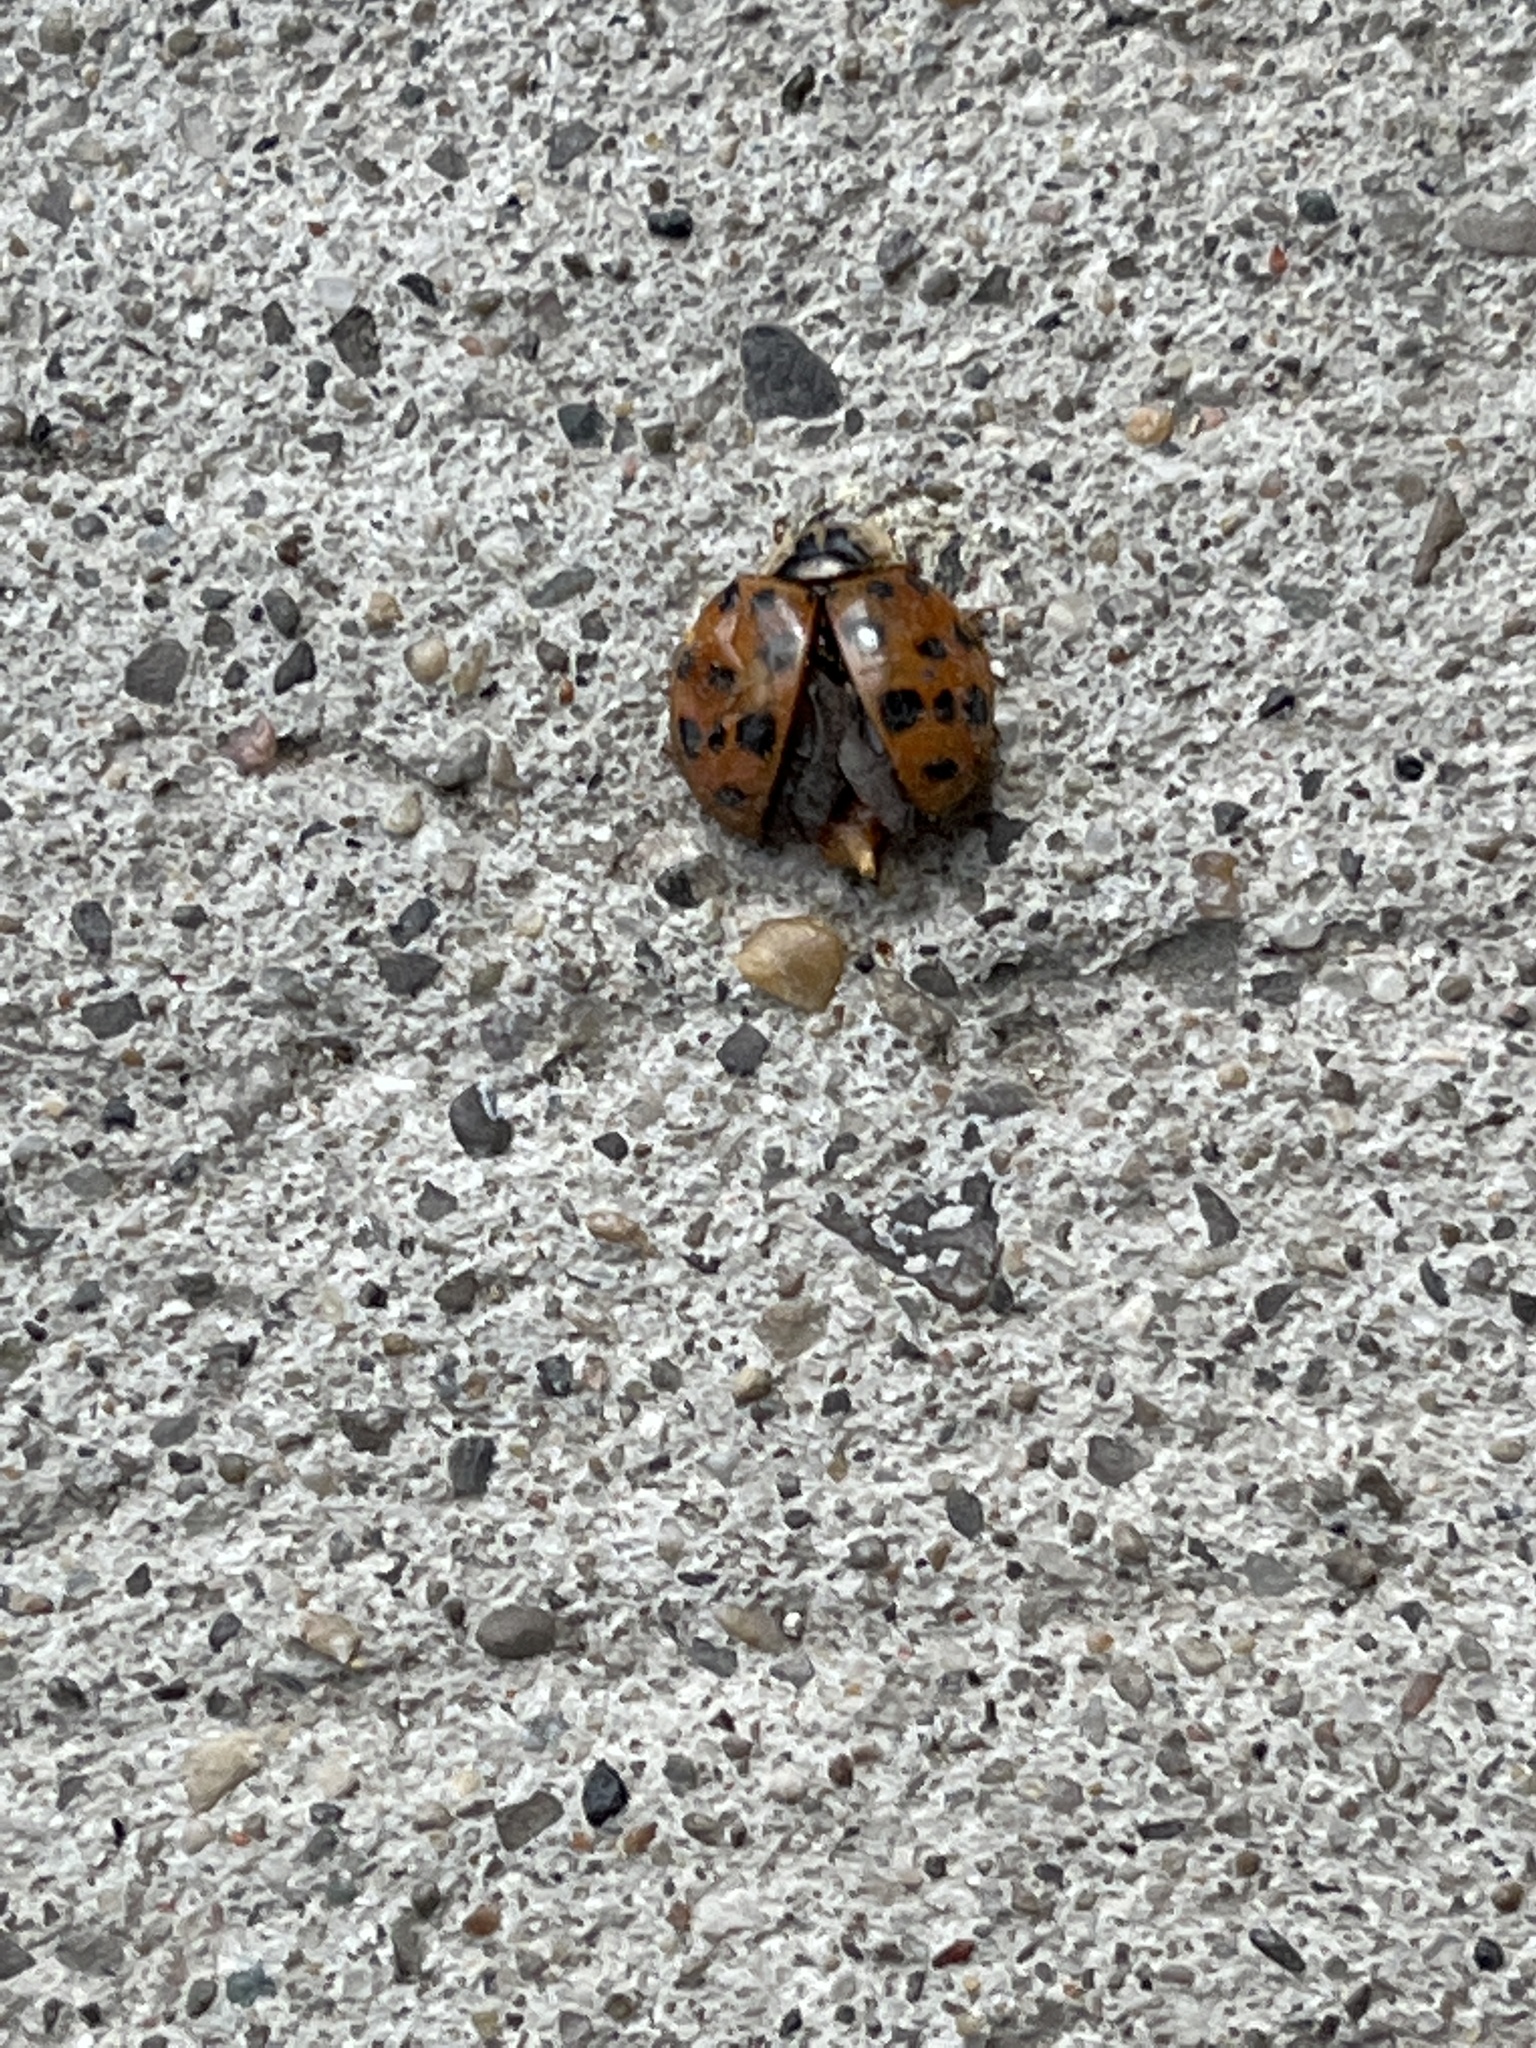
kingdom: Animalia
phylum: Arthropoda
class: Insecta
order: Coleoptera
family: Coccinellidae
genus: Harmonia
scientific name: Harmonia axyridis
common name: Harlequin ladybird
